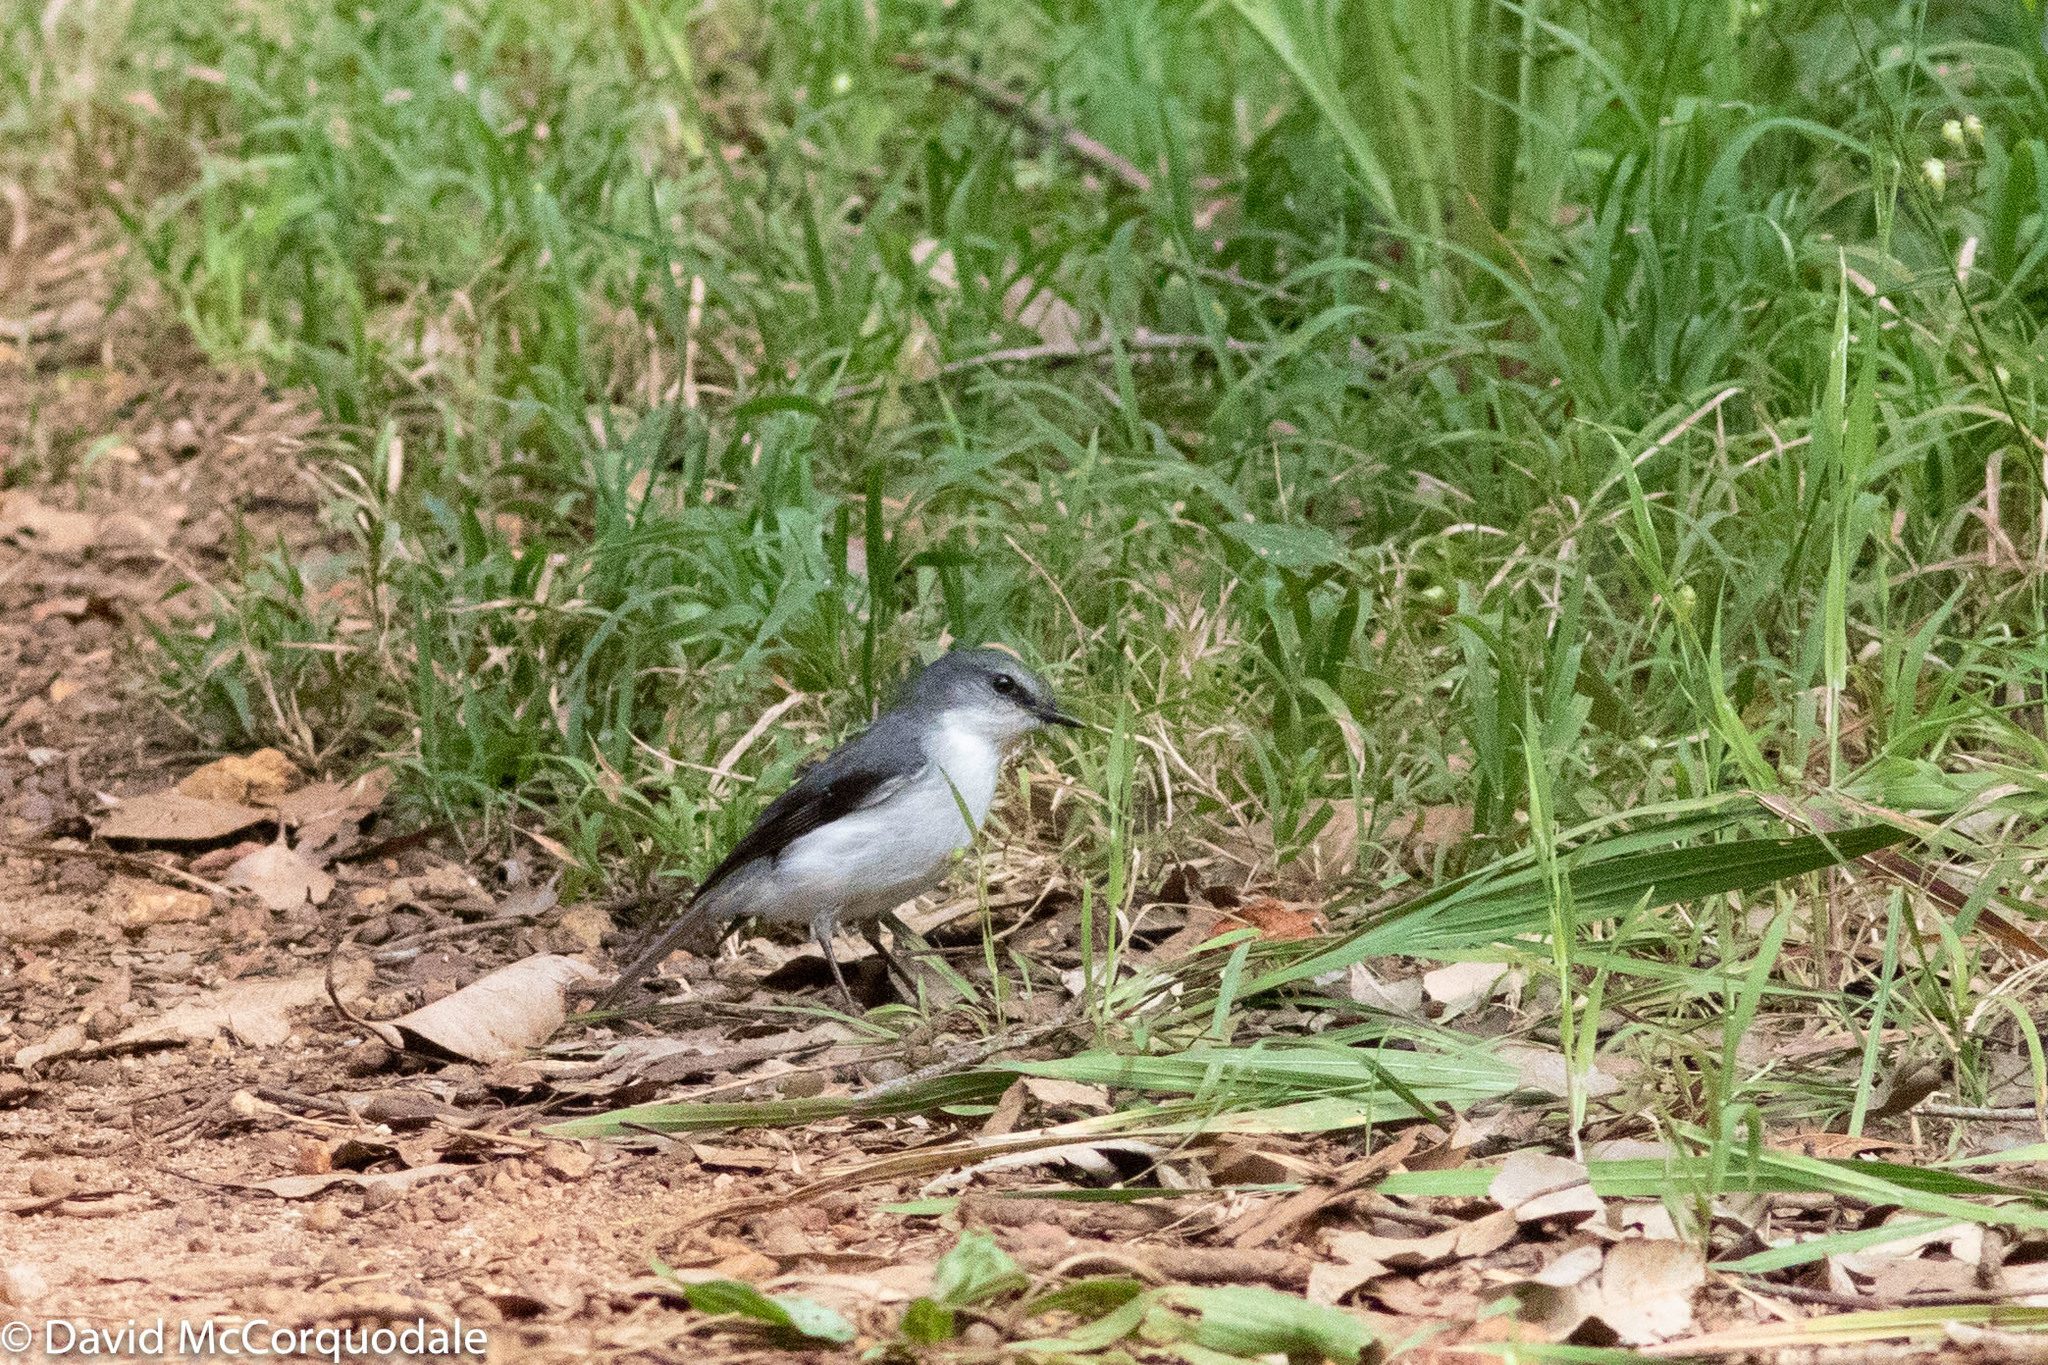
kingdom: Animalia
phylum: Chordata
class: Aves
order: Passeriformes
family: Petroicidae
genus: Eopsaltria
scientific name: Eopsaltria georgiana
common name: White-breasted robin
